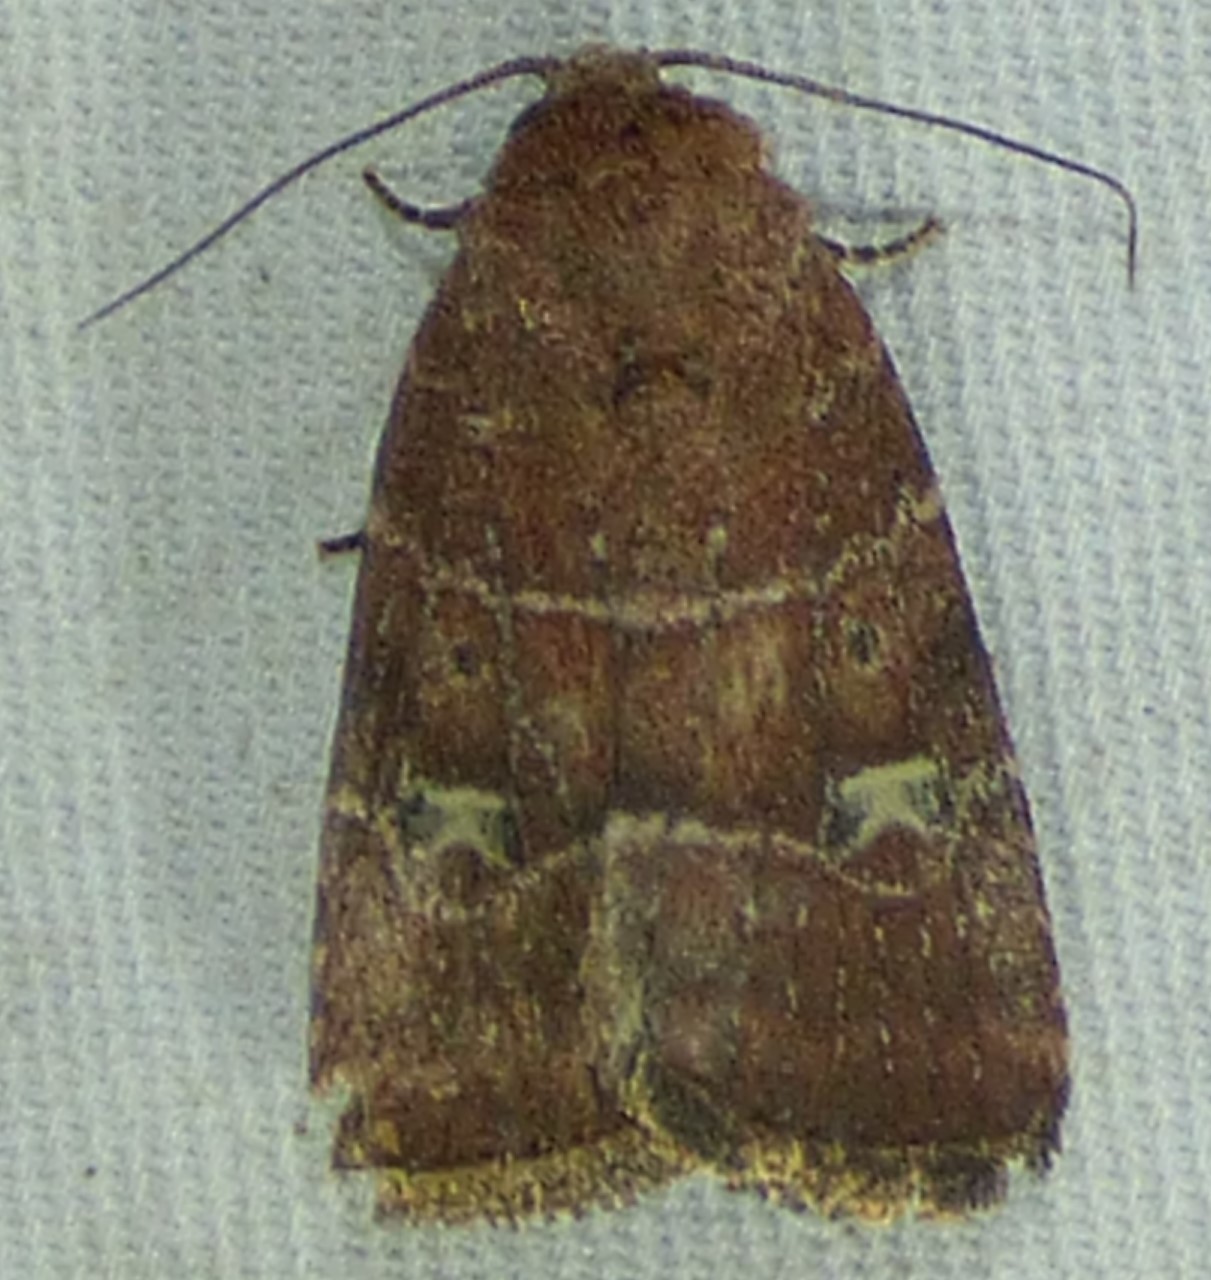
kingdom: Animalia
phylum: Arthropoda
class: Insecta
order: Lepidoptera
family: Noctuidae
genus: Elaphria
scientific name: Elaphria grata
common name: Grateful midget moth
